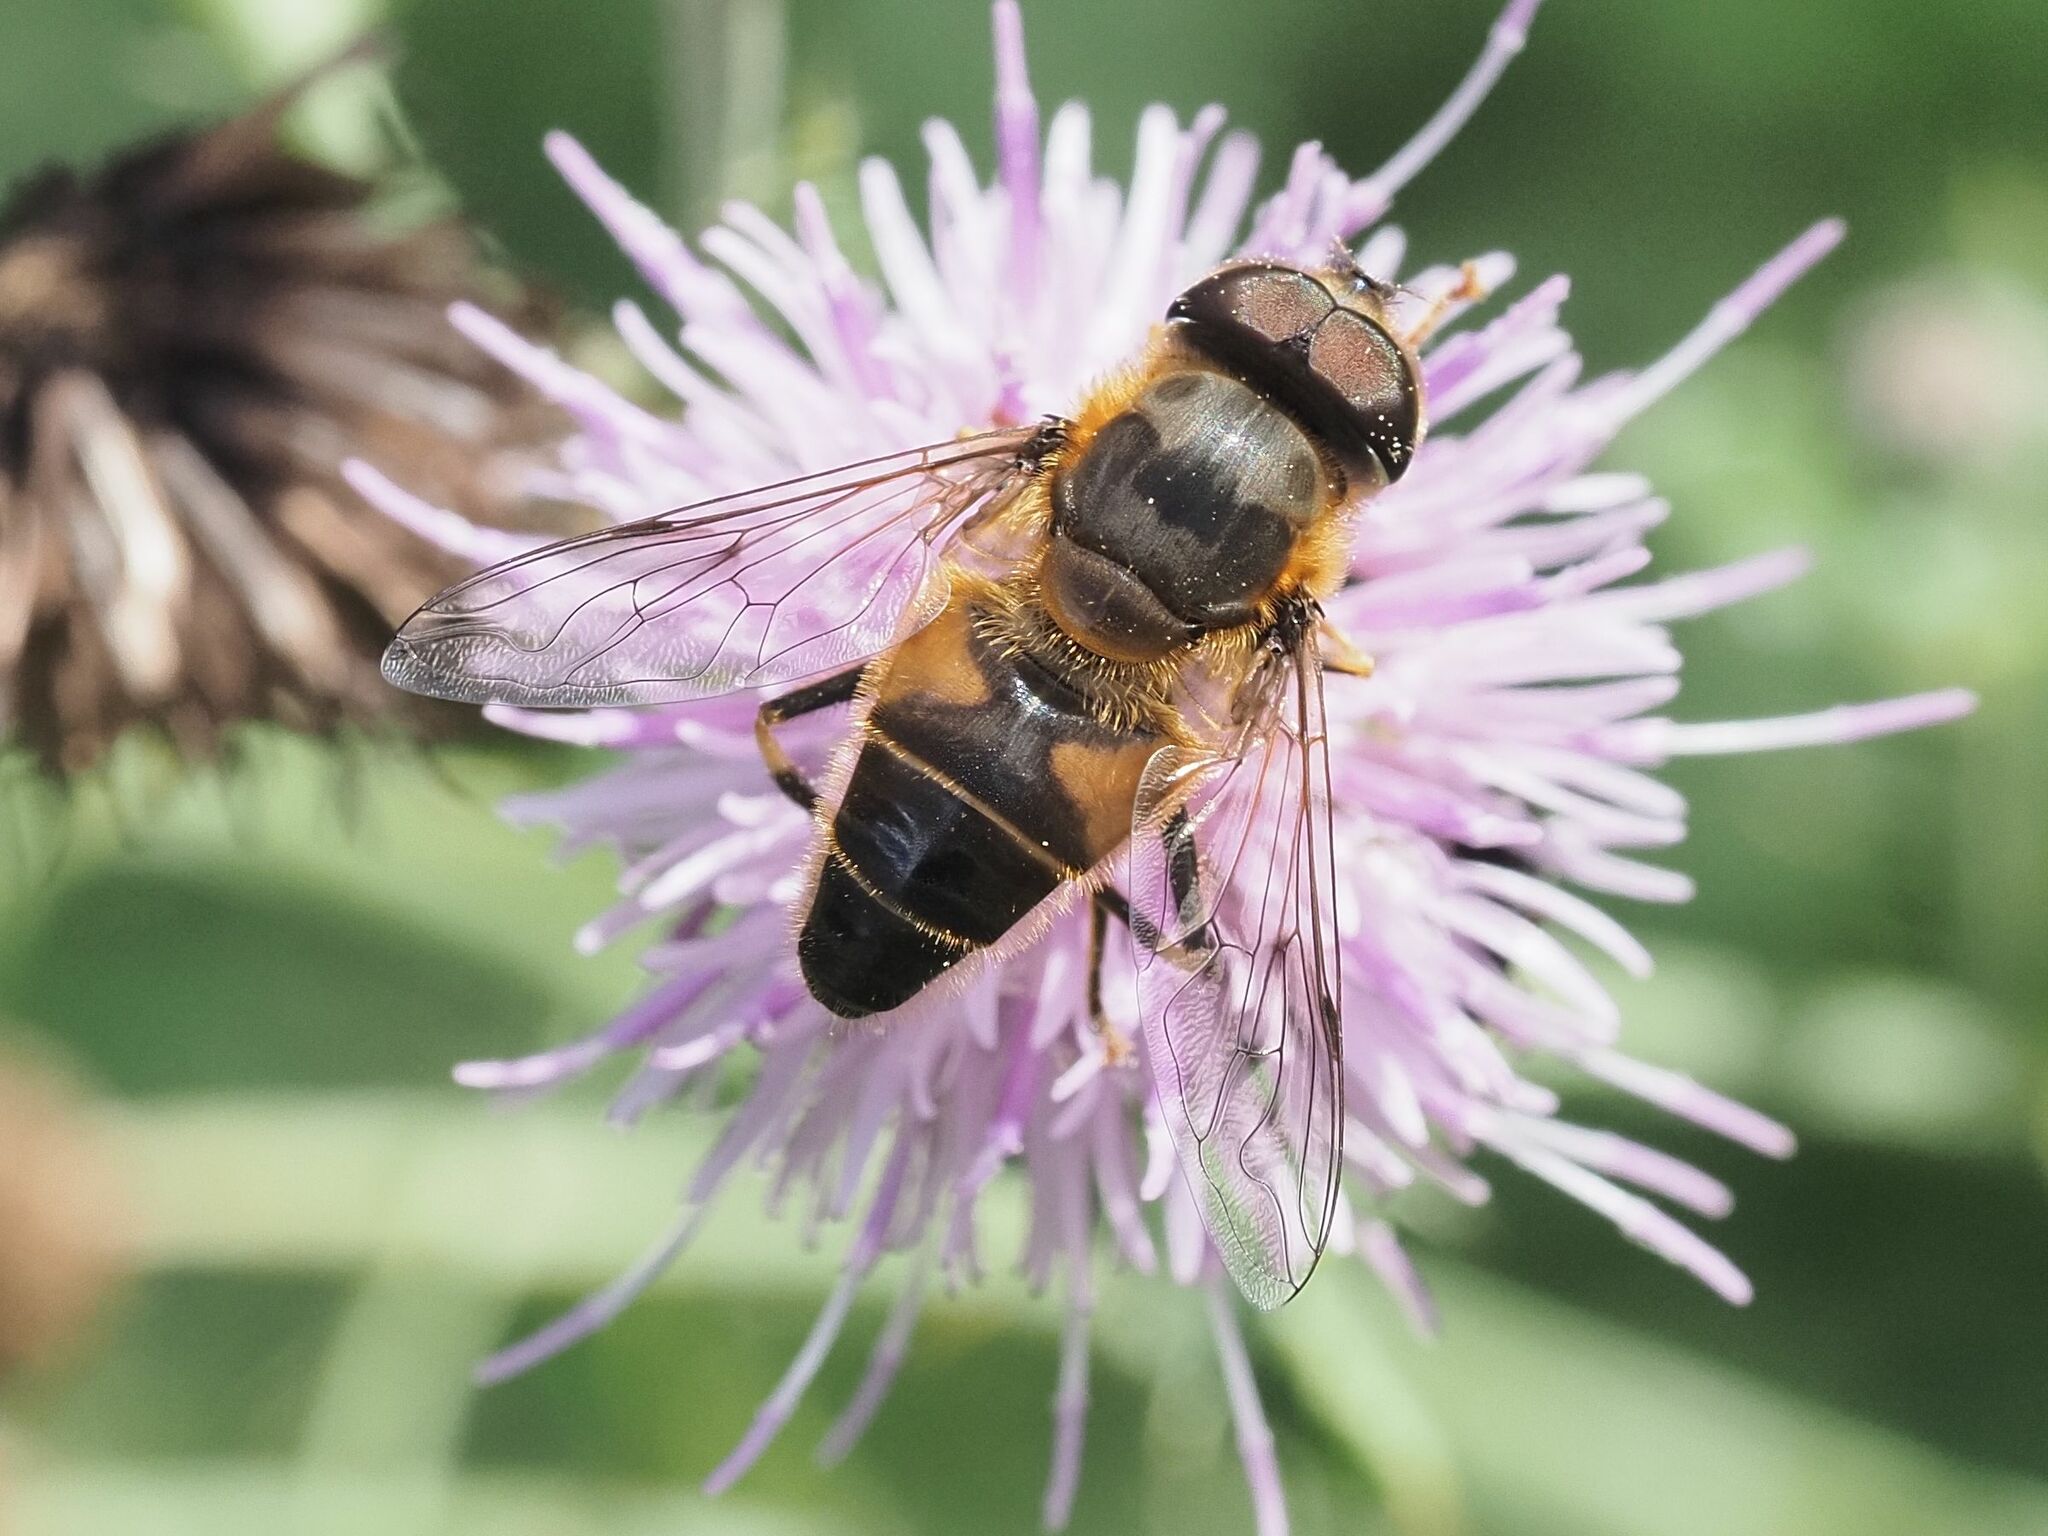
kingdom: Animalia
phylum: Arthropoda
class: Insecta
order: Diptera
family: Syrphidae
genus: Eristalis
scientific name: Eristalis pertinax
